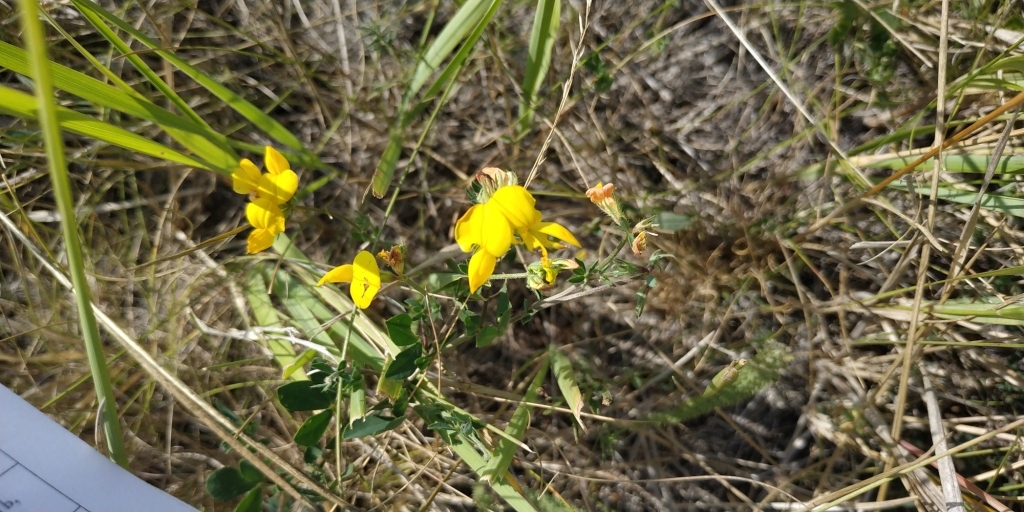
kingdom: Plantae
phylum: Tracheophyta
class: Magnoliopsida
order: Fabales
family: Fabaceae
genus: Lotus
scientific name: Lotus ucrainicus
